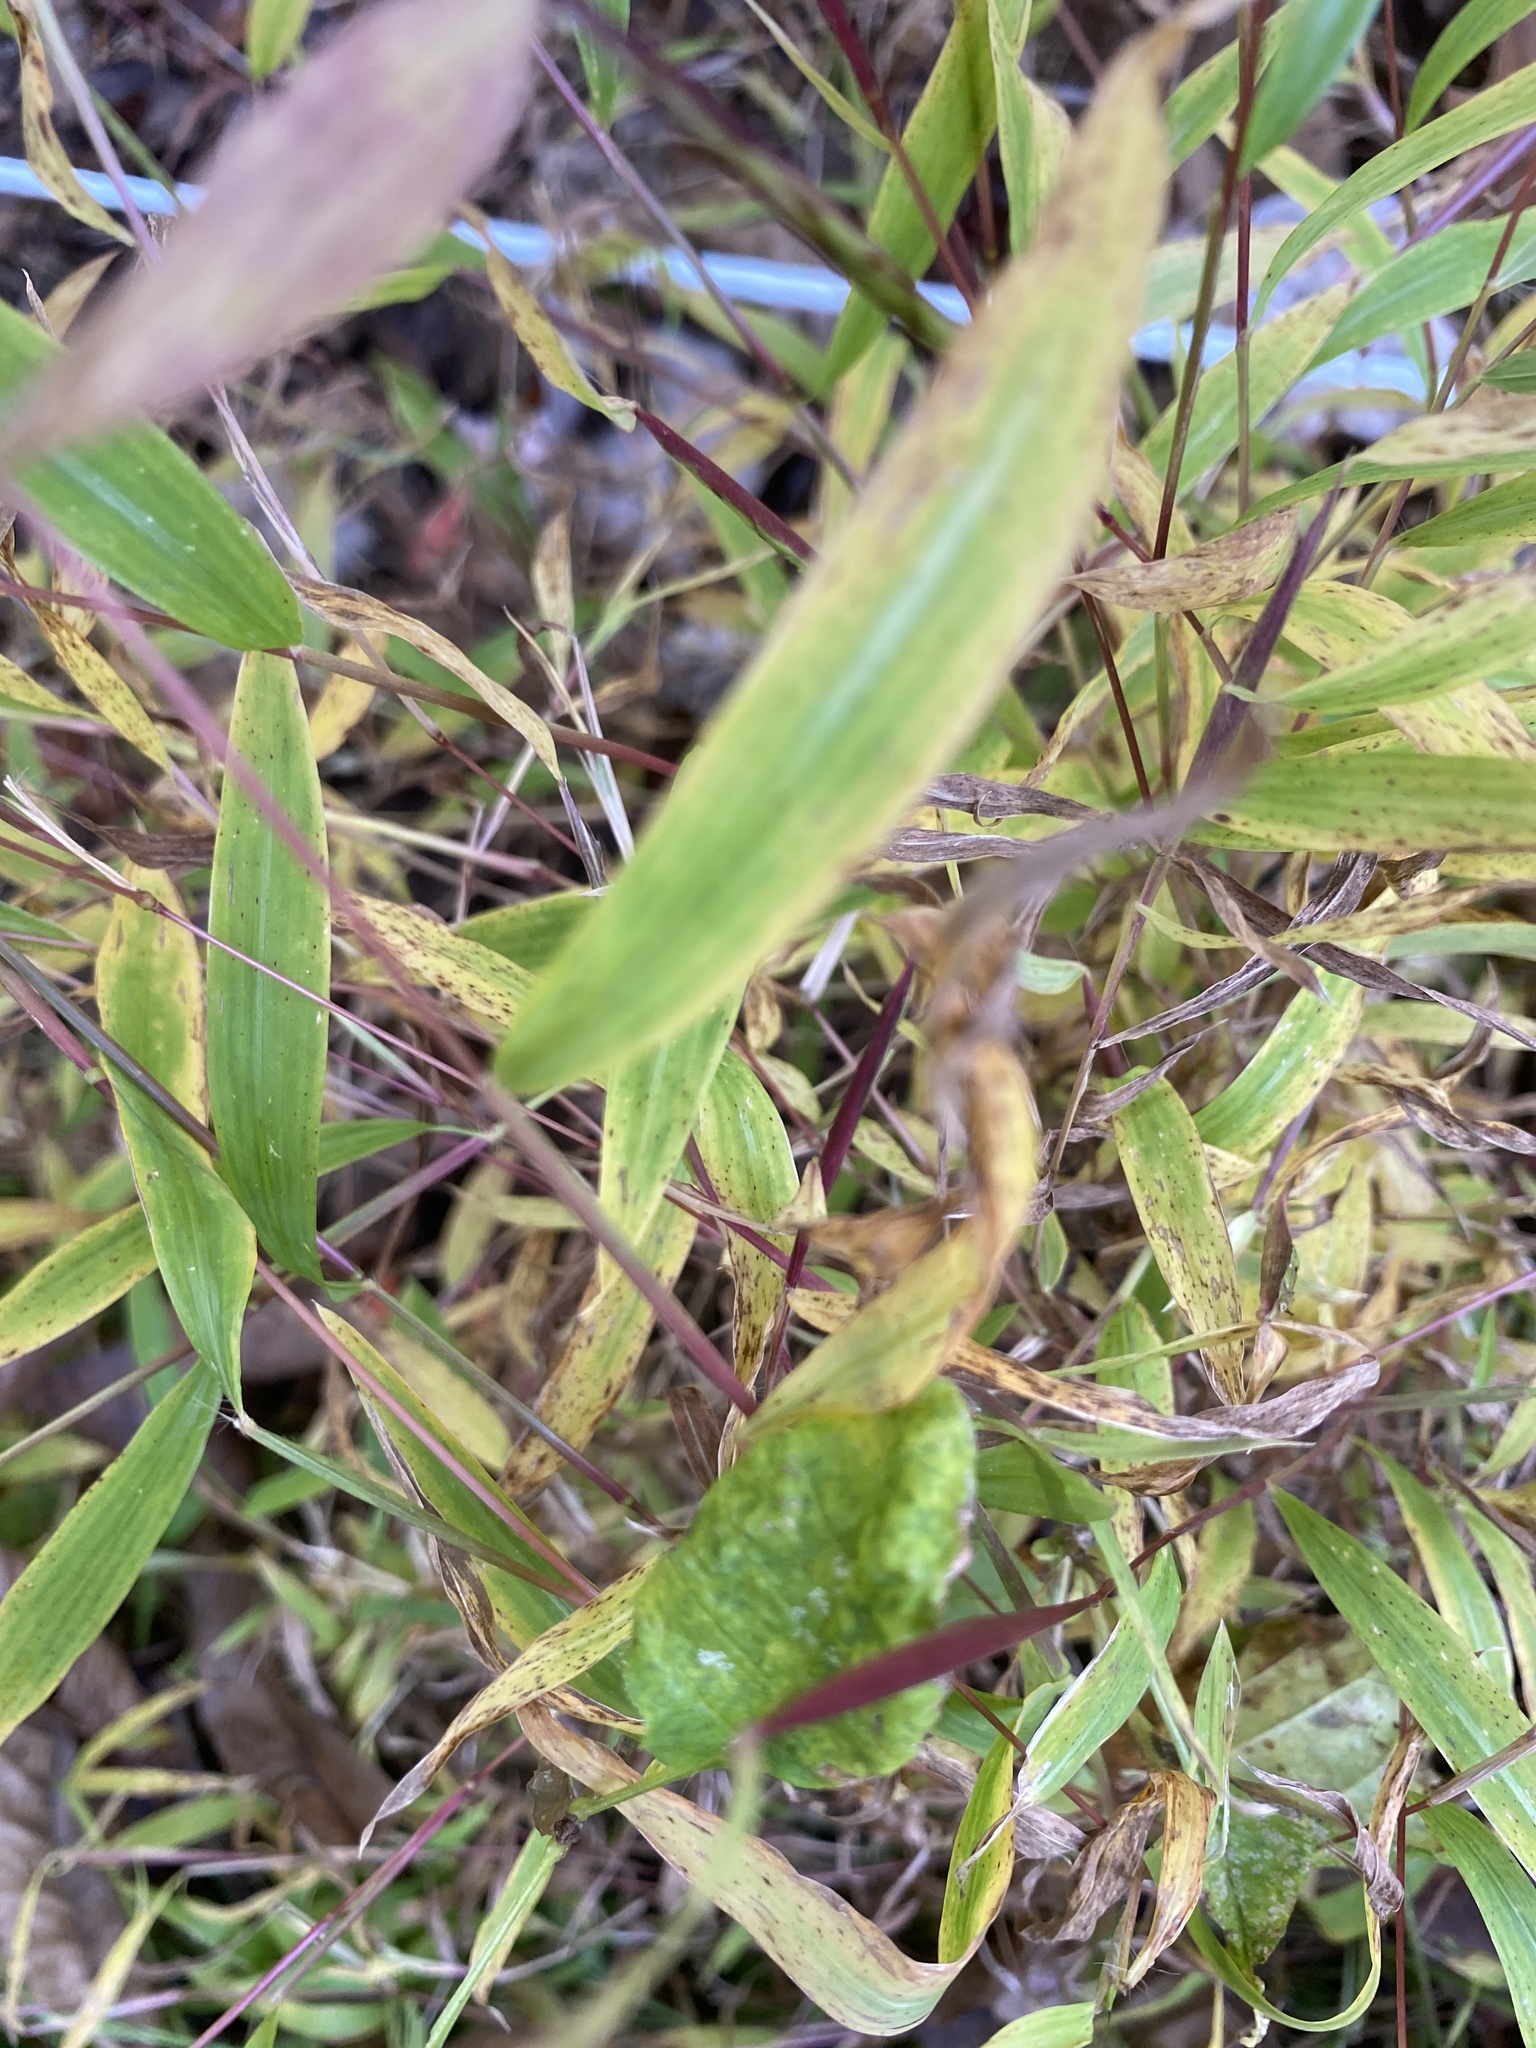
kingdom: Plantae
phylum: Tracheophyta
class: Liliopsida
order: Poales
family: Poaceae
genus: Microstegium
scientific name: Microstegium vimineum
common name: Japanese stiltgrass
